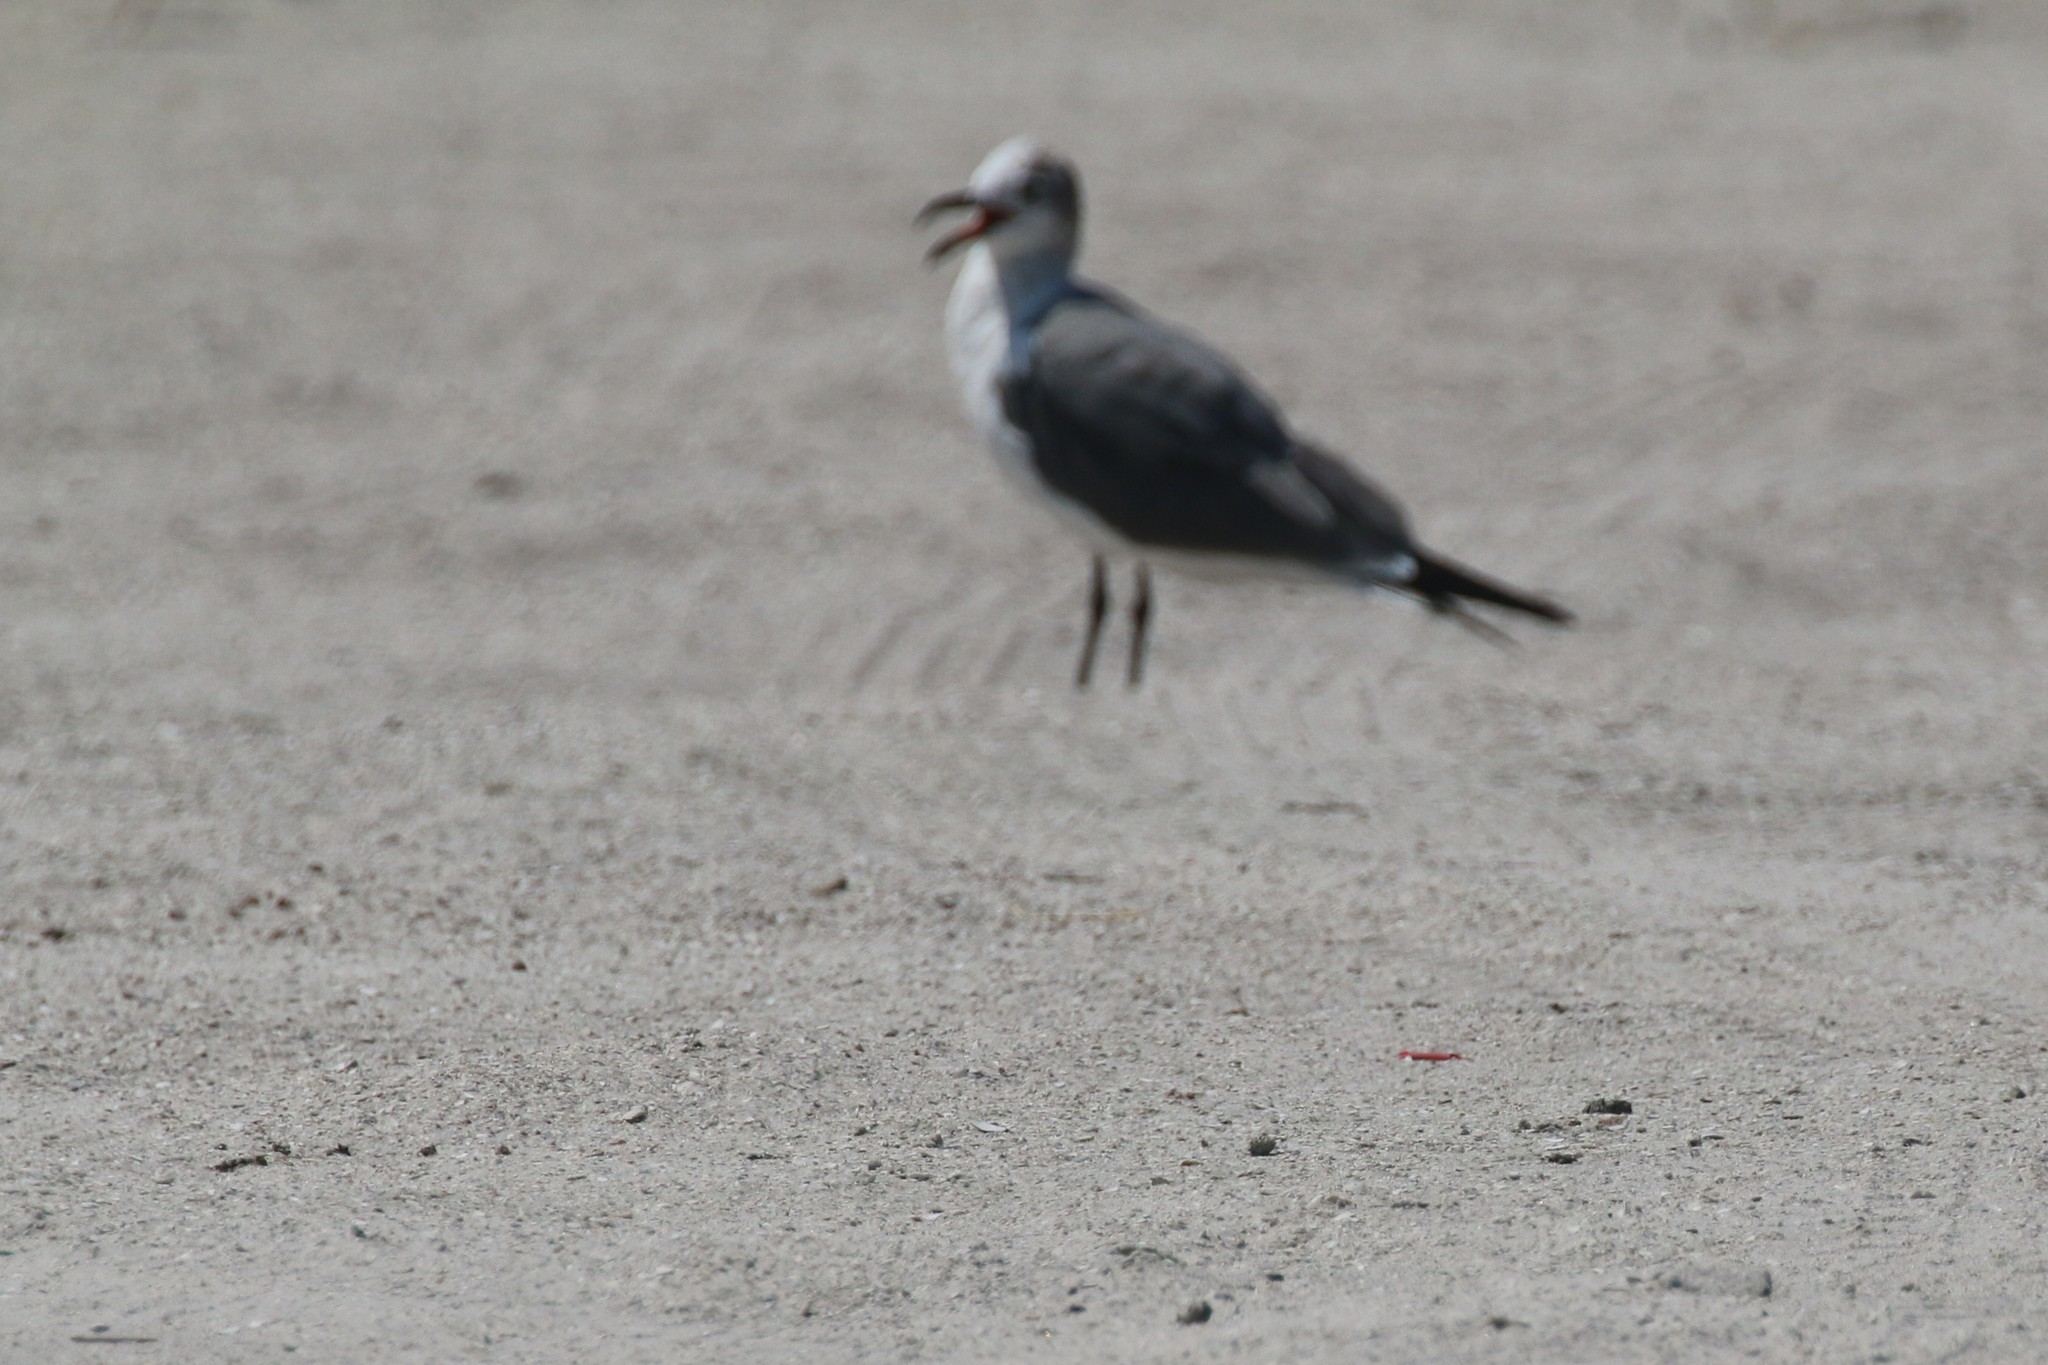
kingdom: Animalia
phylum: Chordata
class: Aves
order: Charadriiformes
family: Laridae
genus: Leucophaeus
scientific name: Leucophaeus atricilla
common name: Laughing gull
